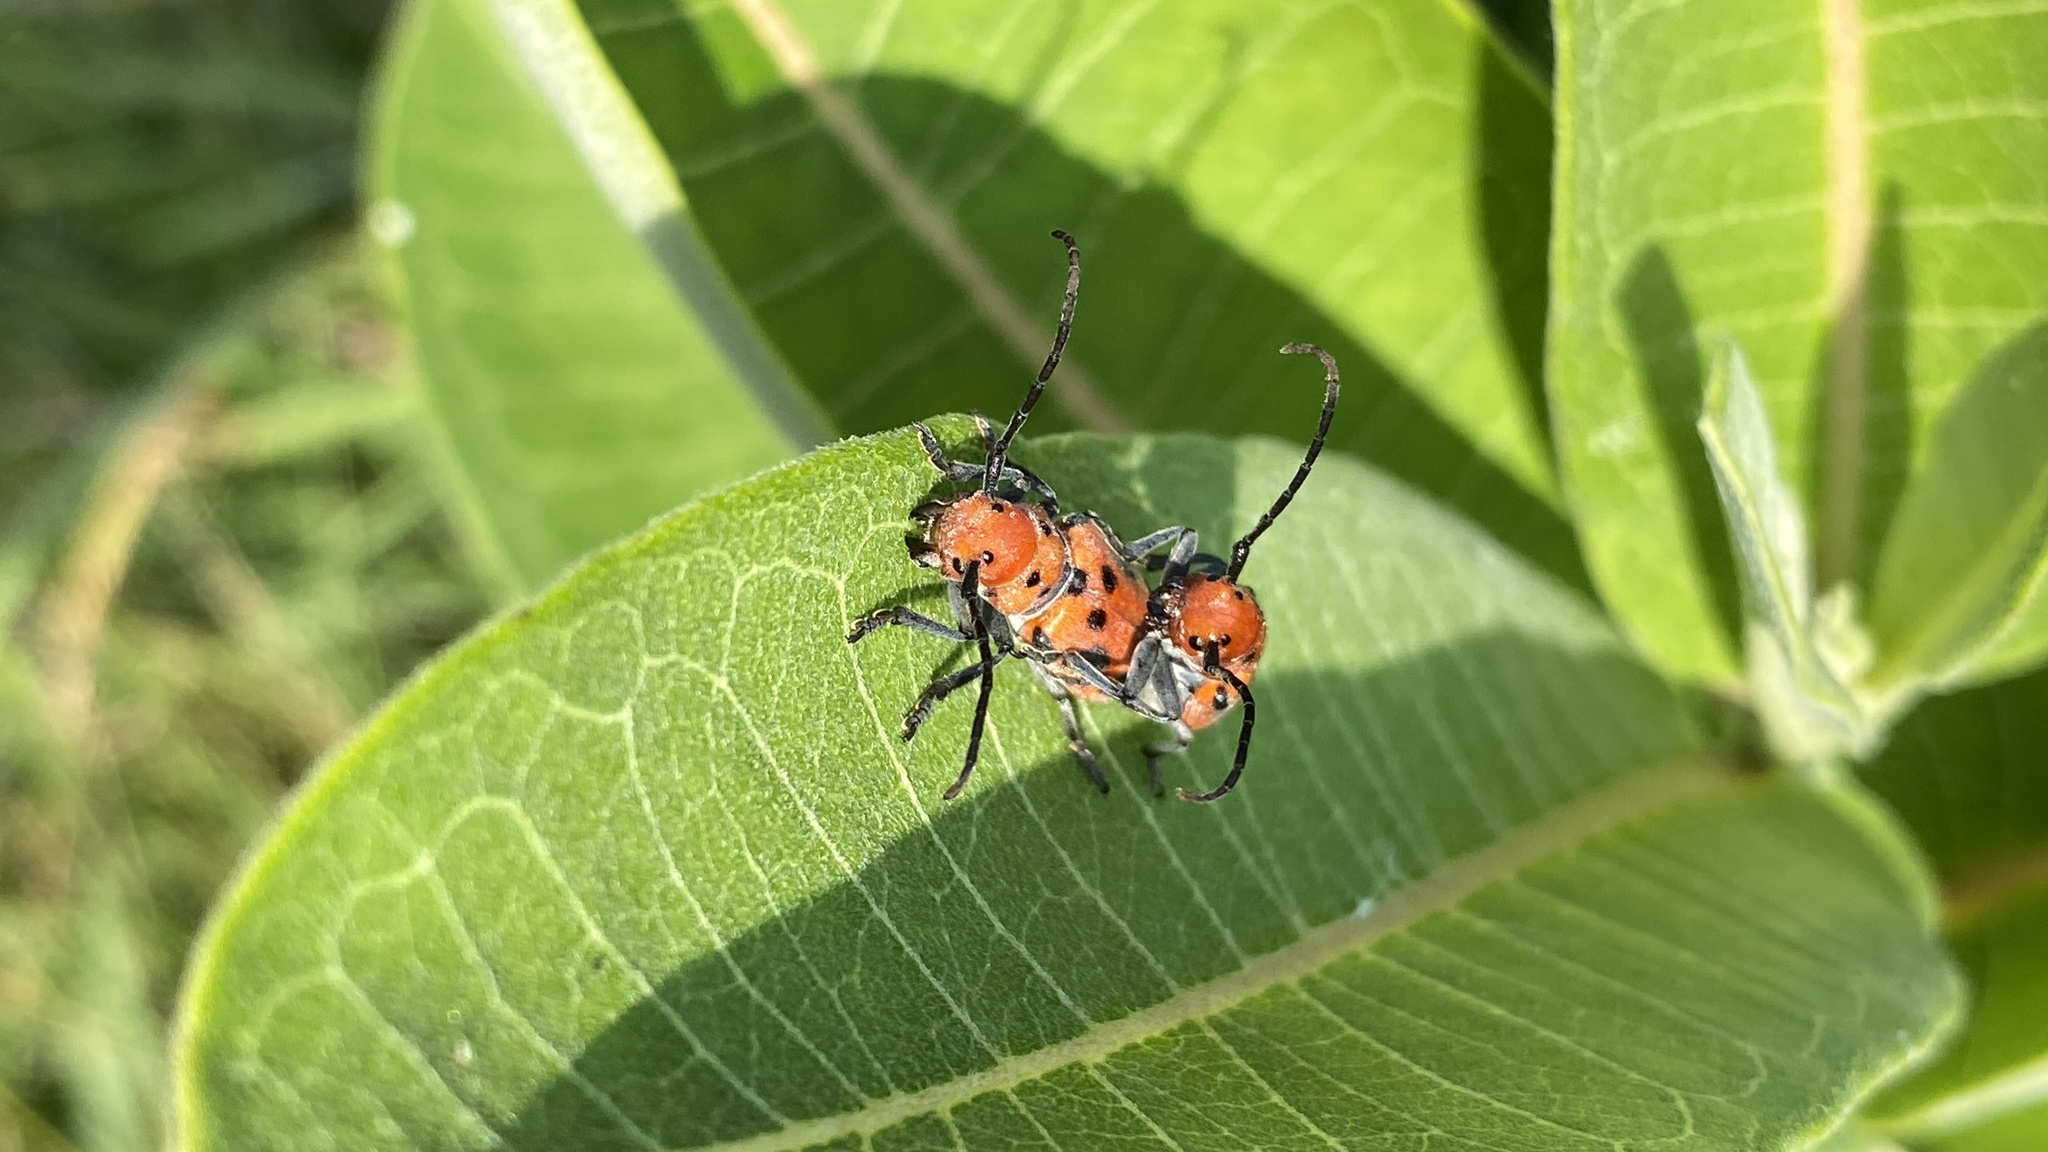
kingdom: Animalia
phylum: Arthropoda
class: Insecta
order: Coleoptera
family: Cerambycidae
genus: Tetraopes
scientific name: Tetraopes tetrophthalmus
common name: Red milkweed beetle
